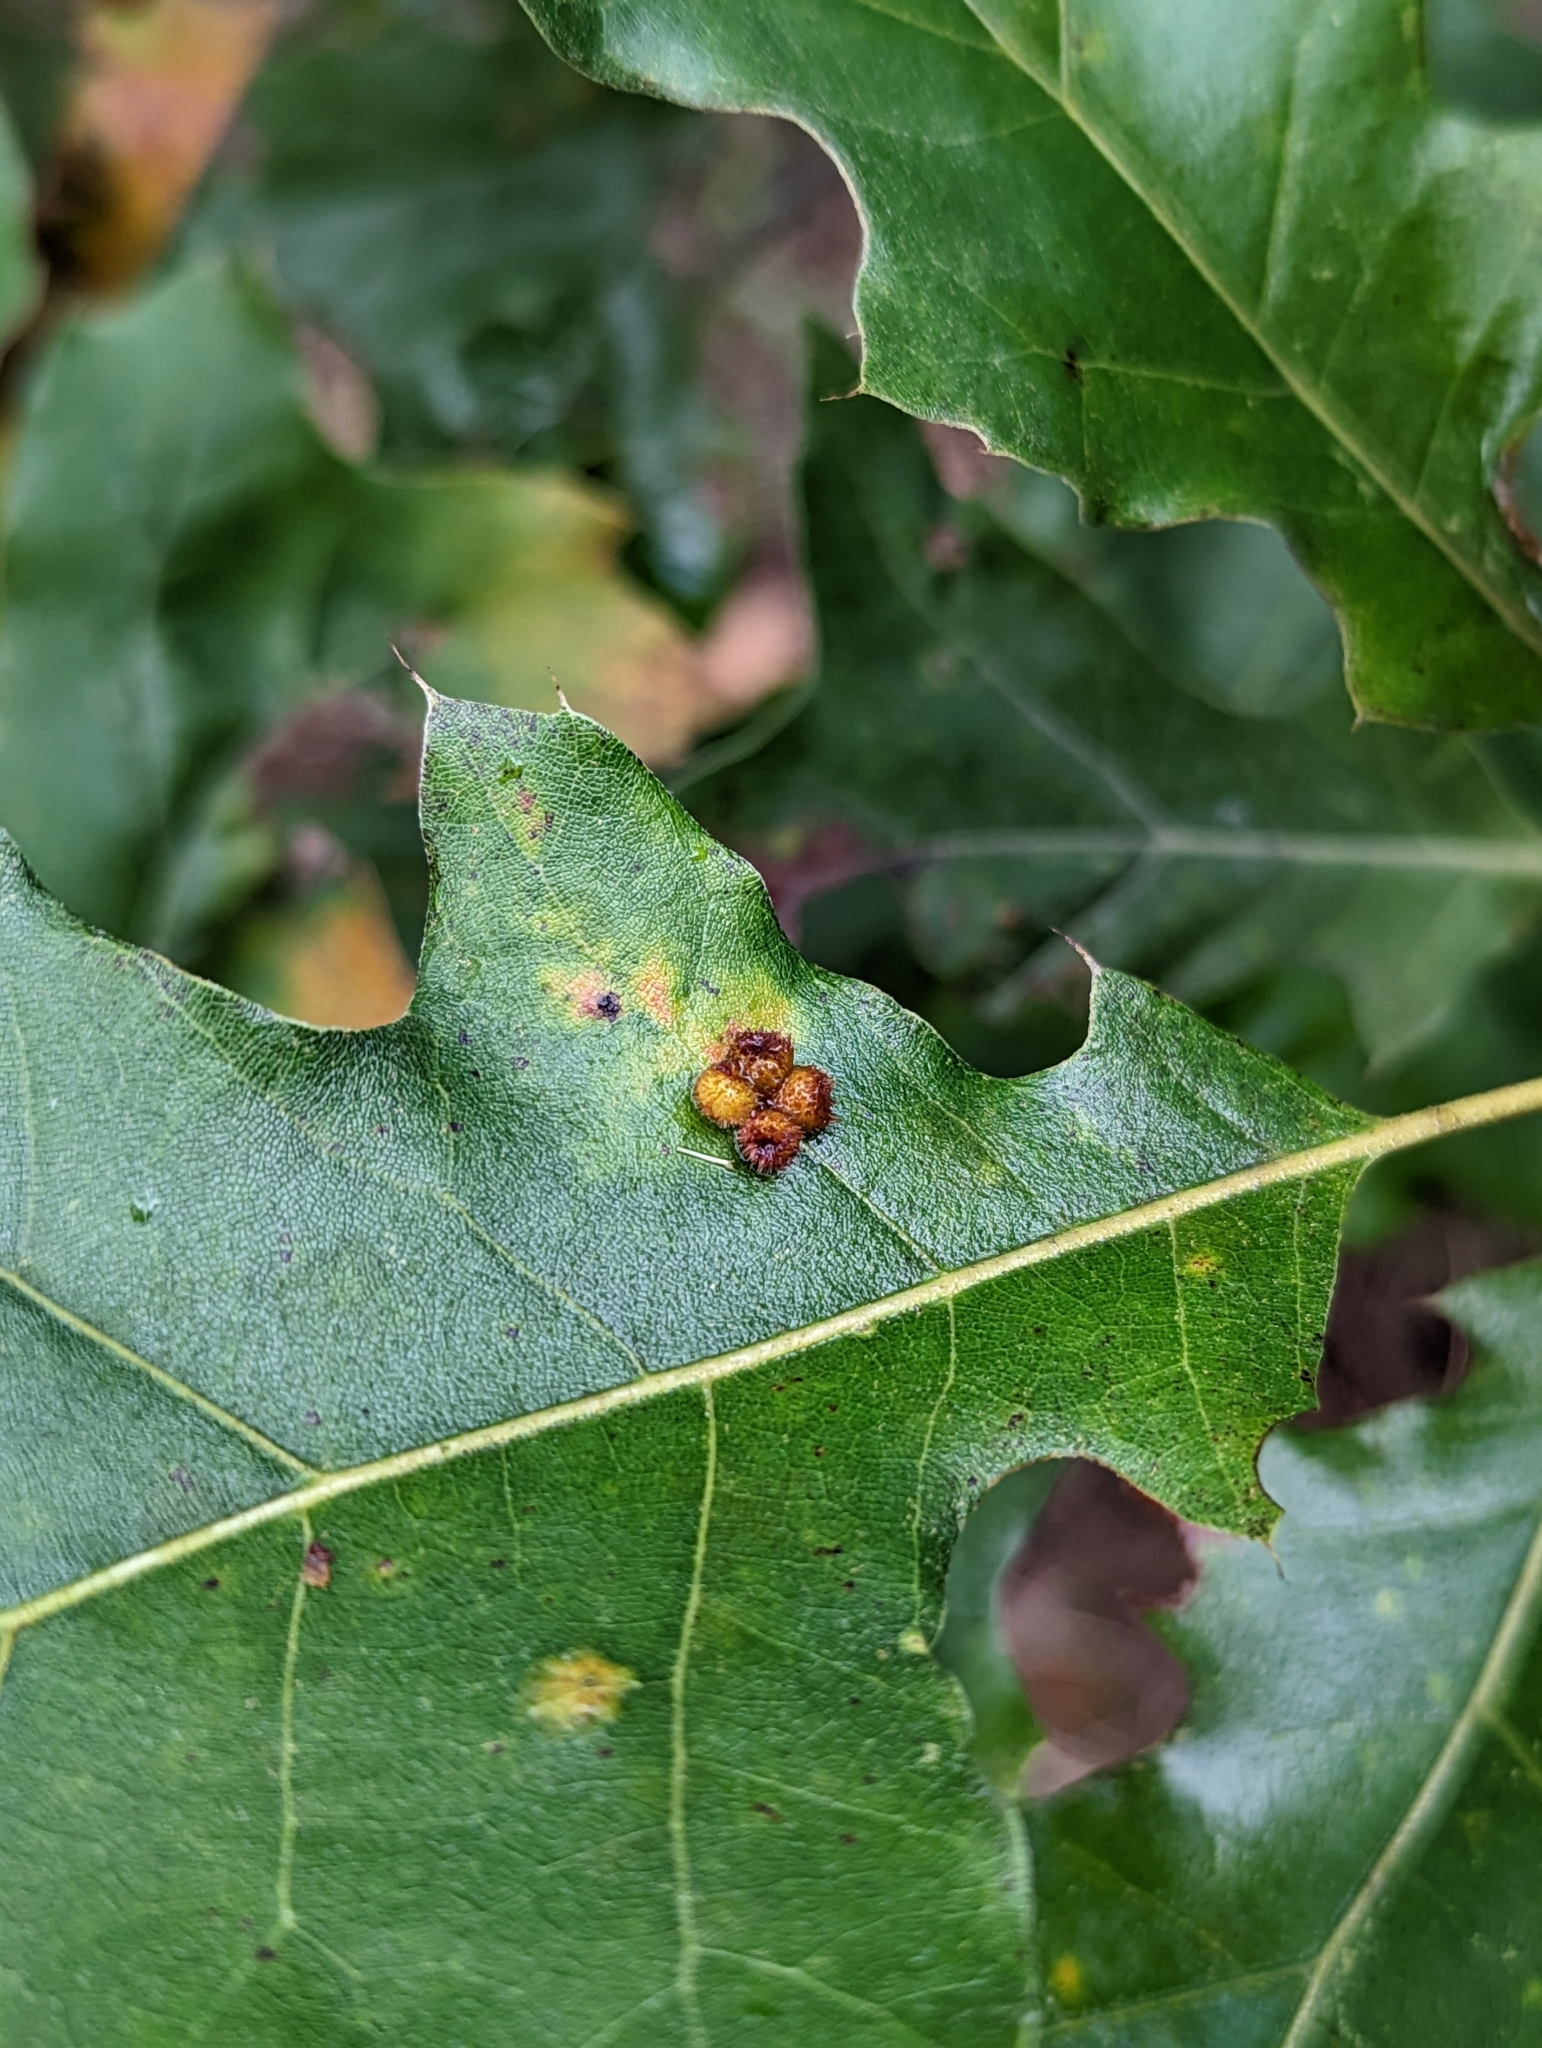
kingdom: Animalia
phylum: Arthropoda
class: Insecta
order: Hymenoptera
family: Cynipidae
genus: Callirhytis
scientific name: Callirhytis
